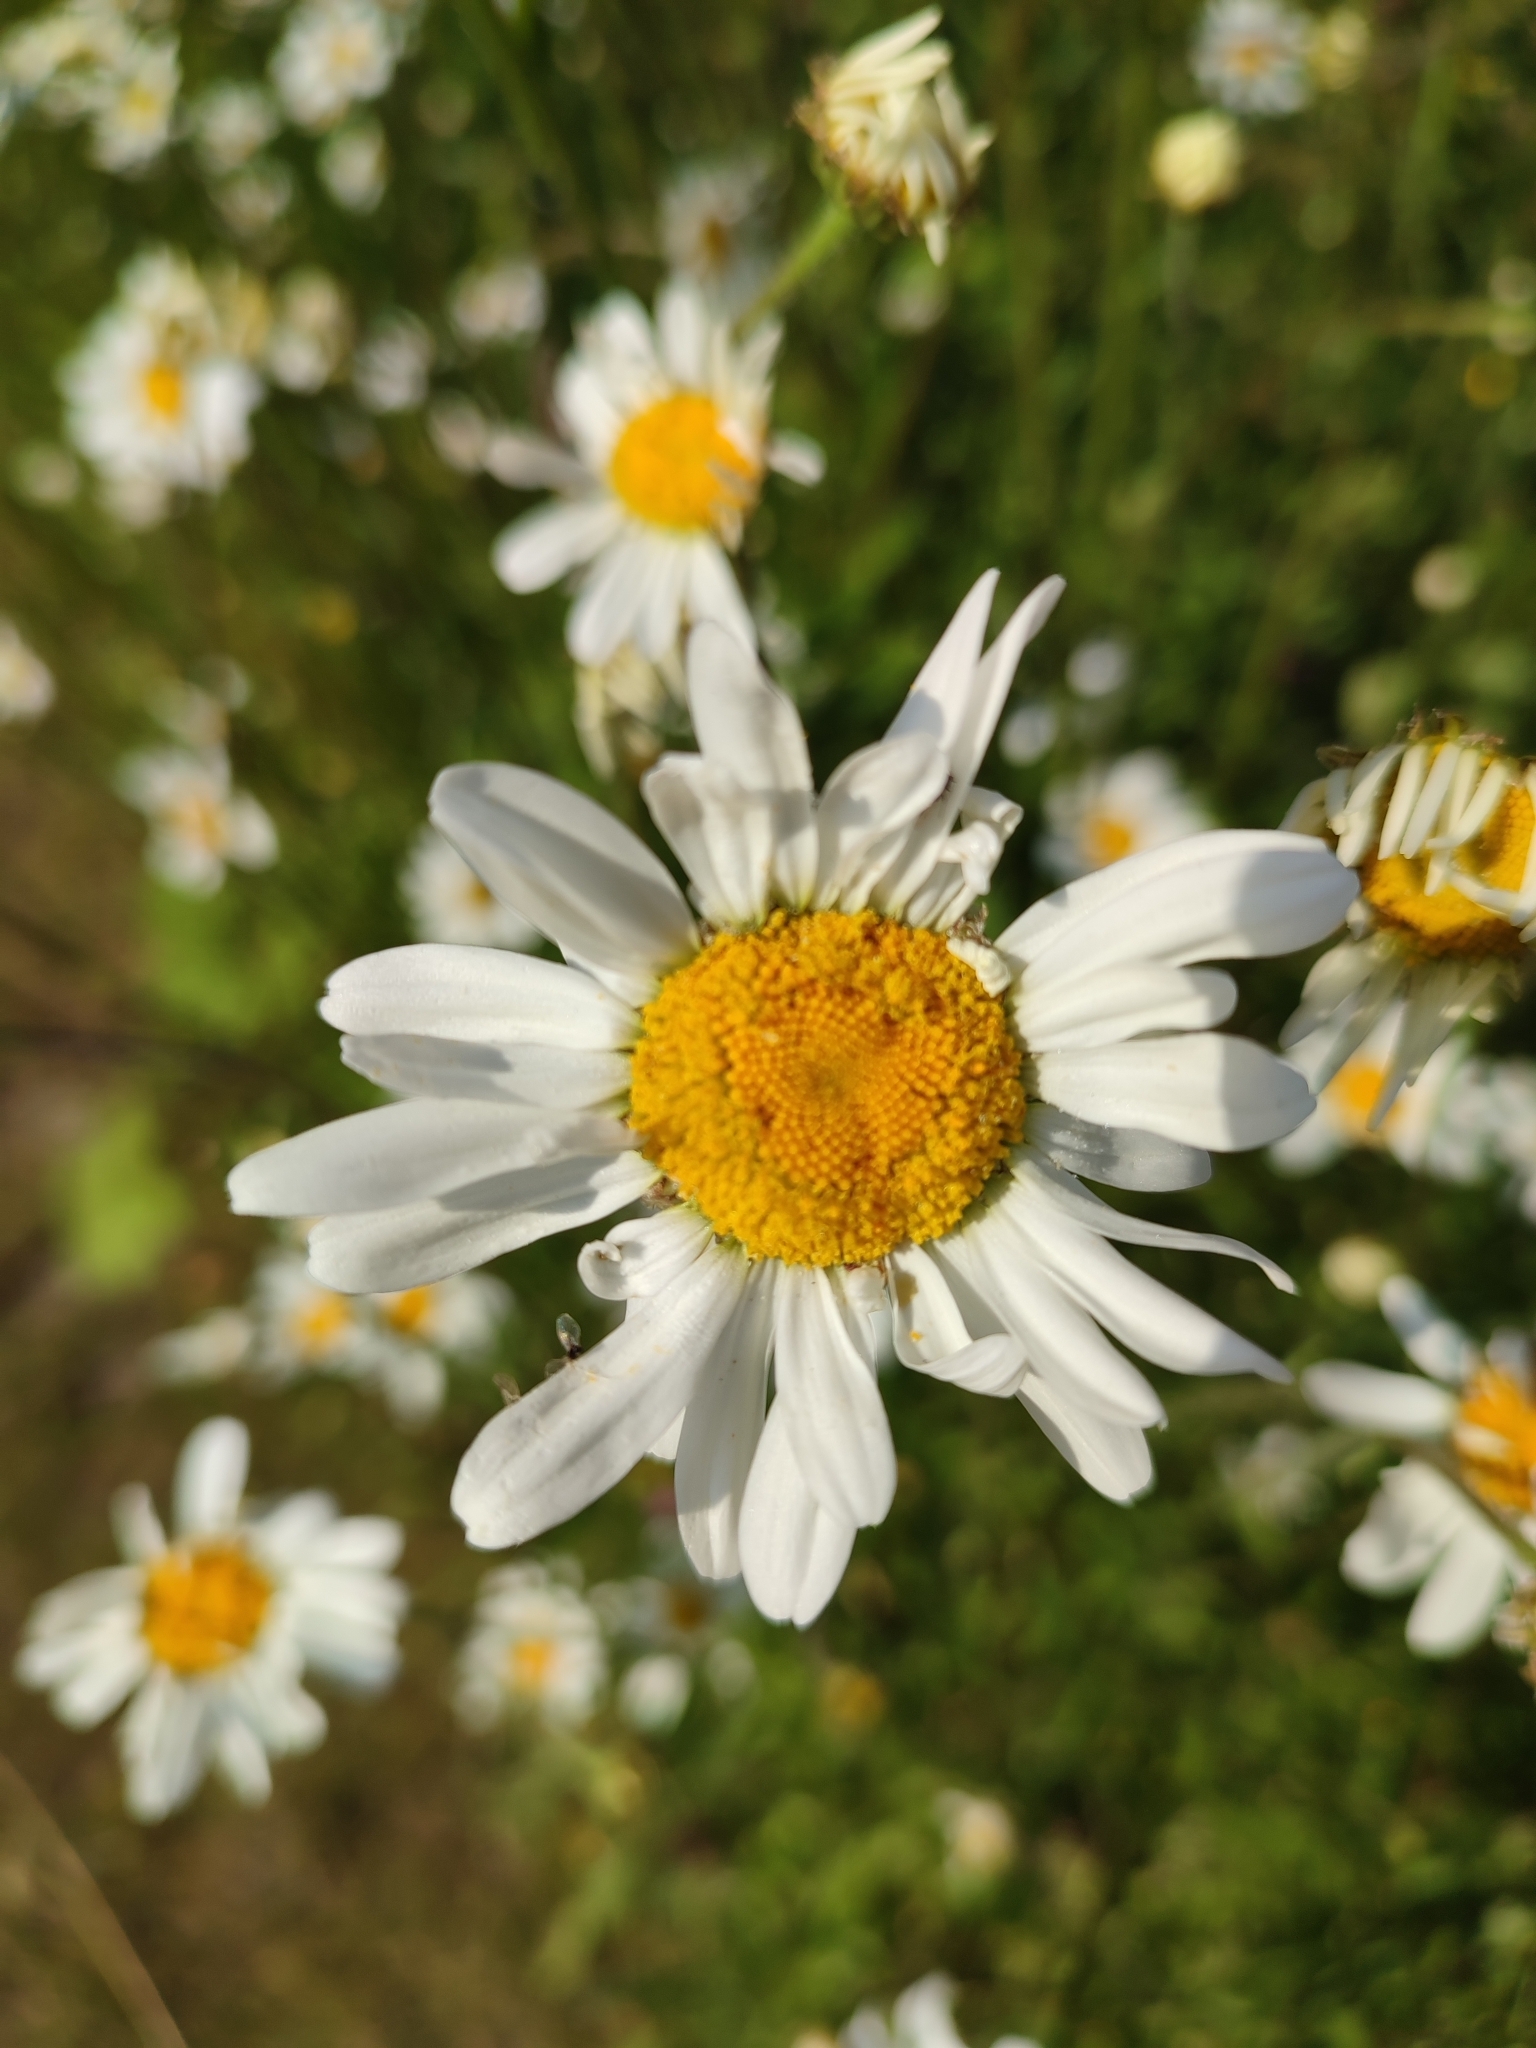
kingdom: Plantae
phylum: Tracheophyta
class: Magnoliopsida
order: Asterales
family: Asteraceae
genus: Leucanthemum
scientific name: Leucanthemum vulgare
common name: Oxeye daisy
